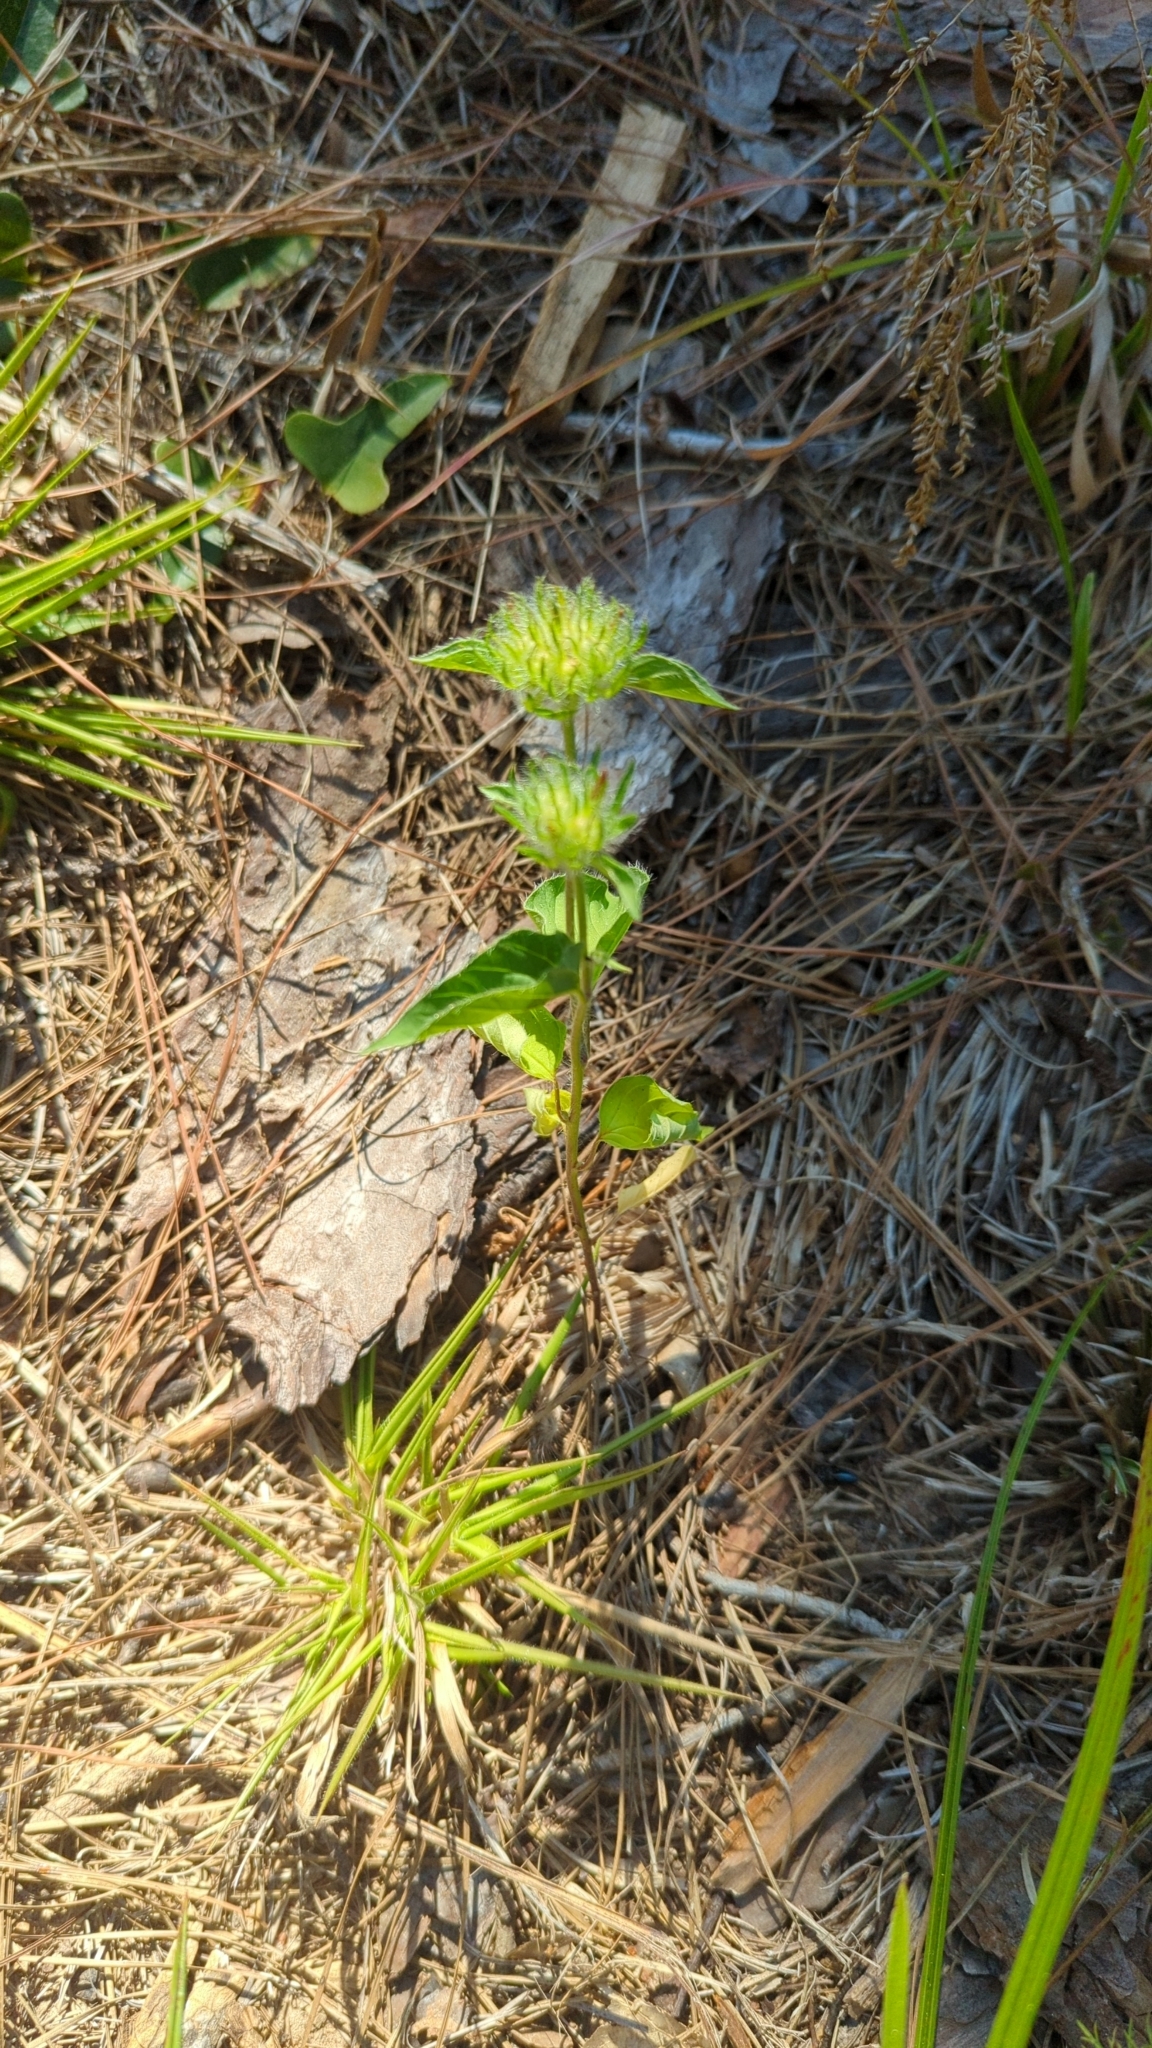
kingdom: Plantae
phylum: Tracheophyta
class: Magnoliopsida
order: Solanales
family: Convolvulaceae
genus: Jacquemontia
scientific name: Jacquemontia tamnifolia
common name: Hairy clustervine
